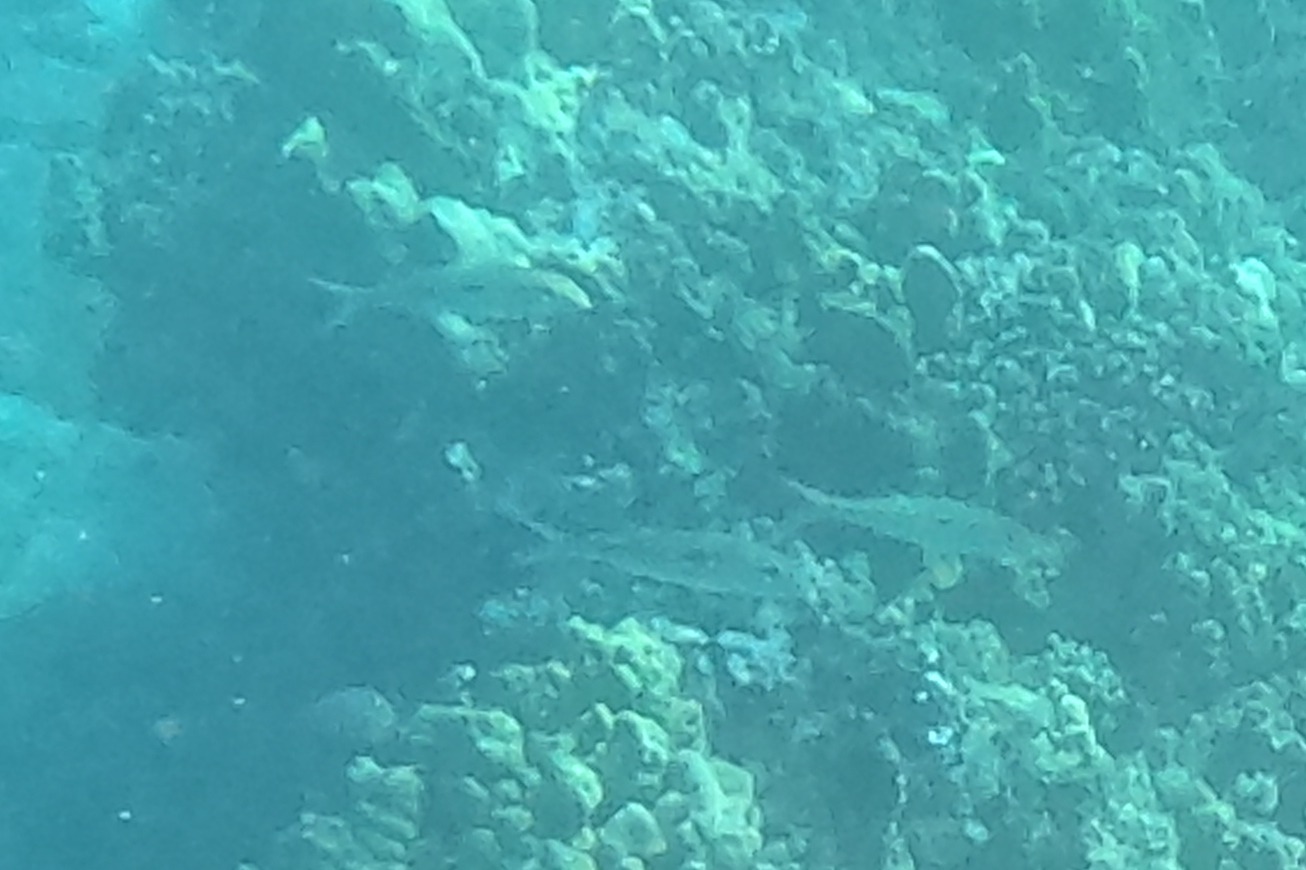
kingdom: Animalia
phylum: Chordata
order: Perciformes
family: Mullidae
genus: Mulloidichthys
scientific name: Mulloidichthys flavolineatus
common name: Yellowstripe goatfish
